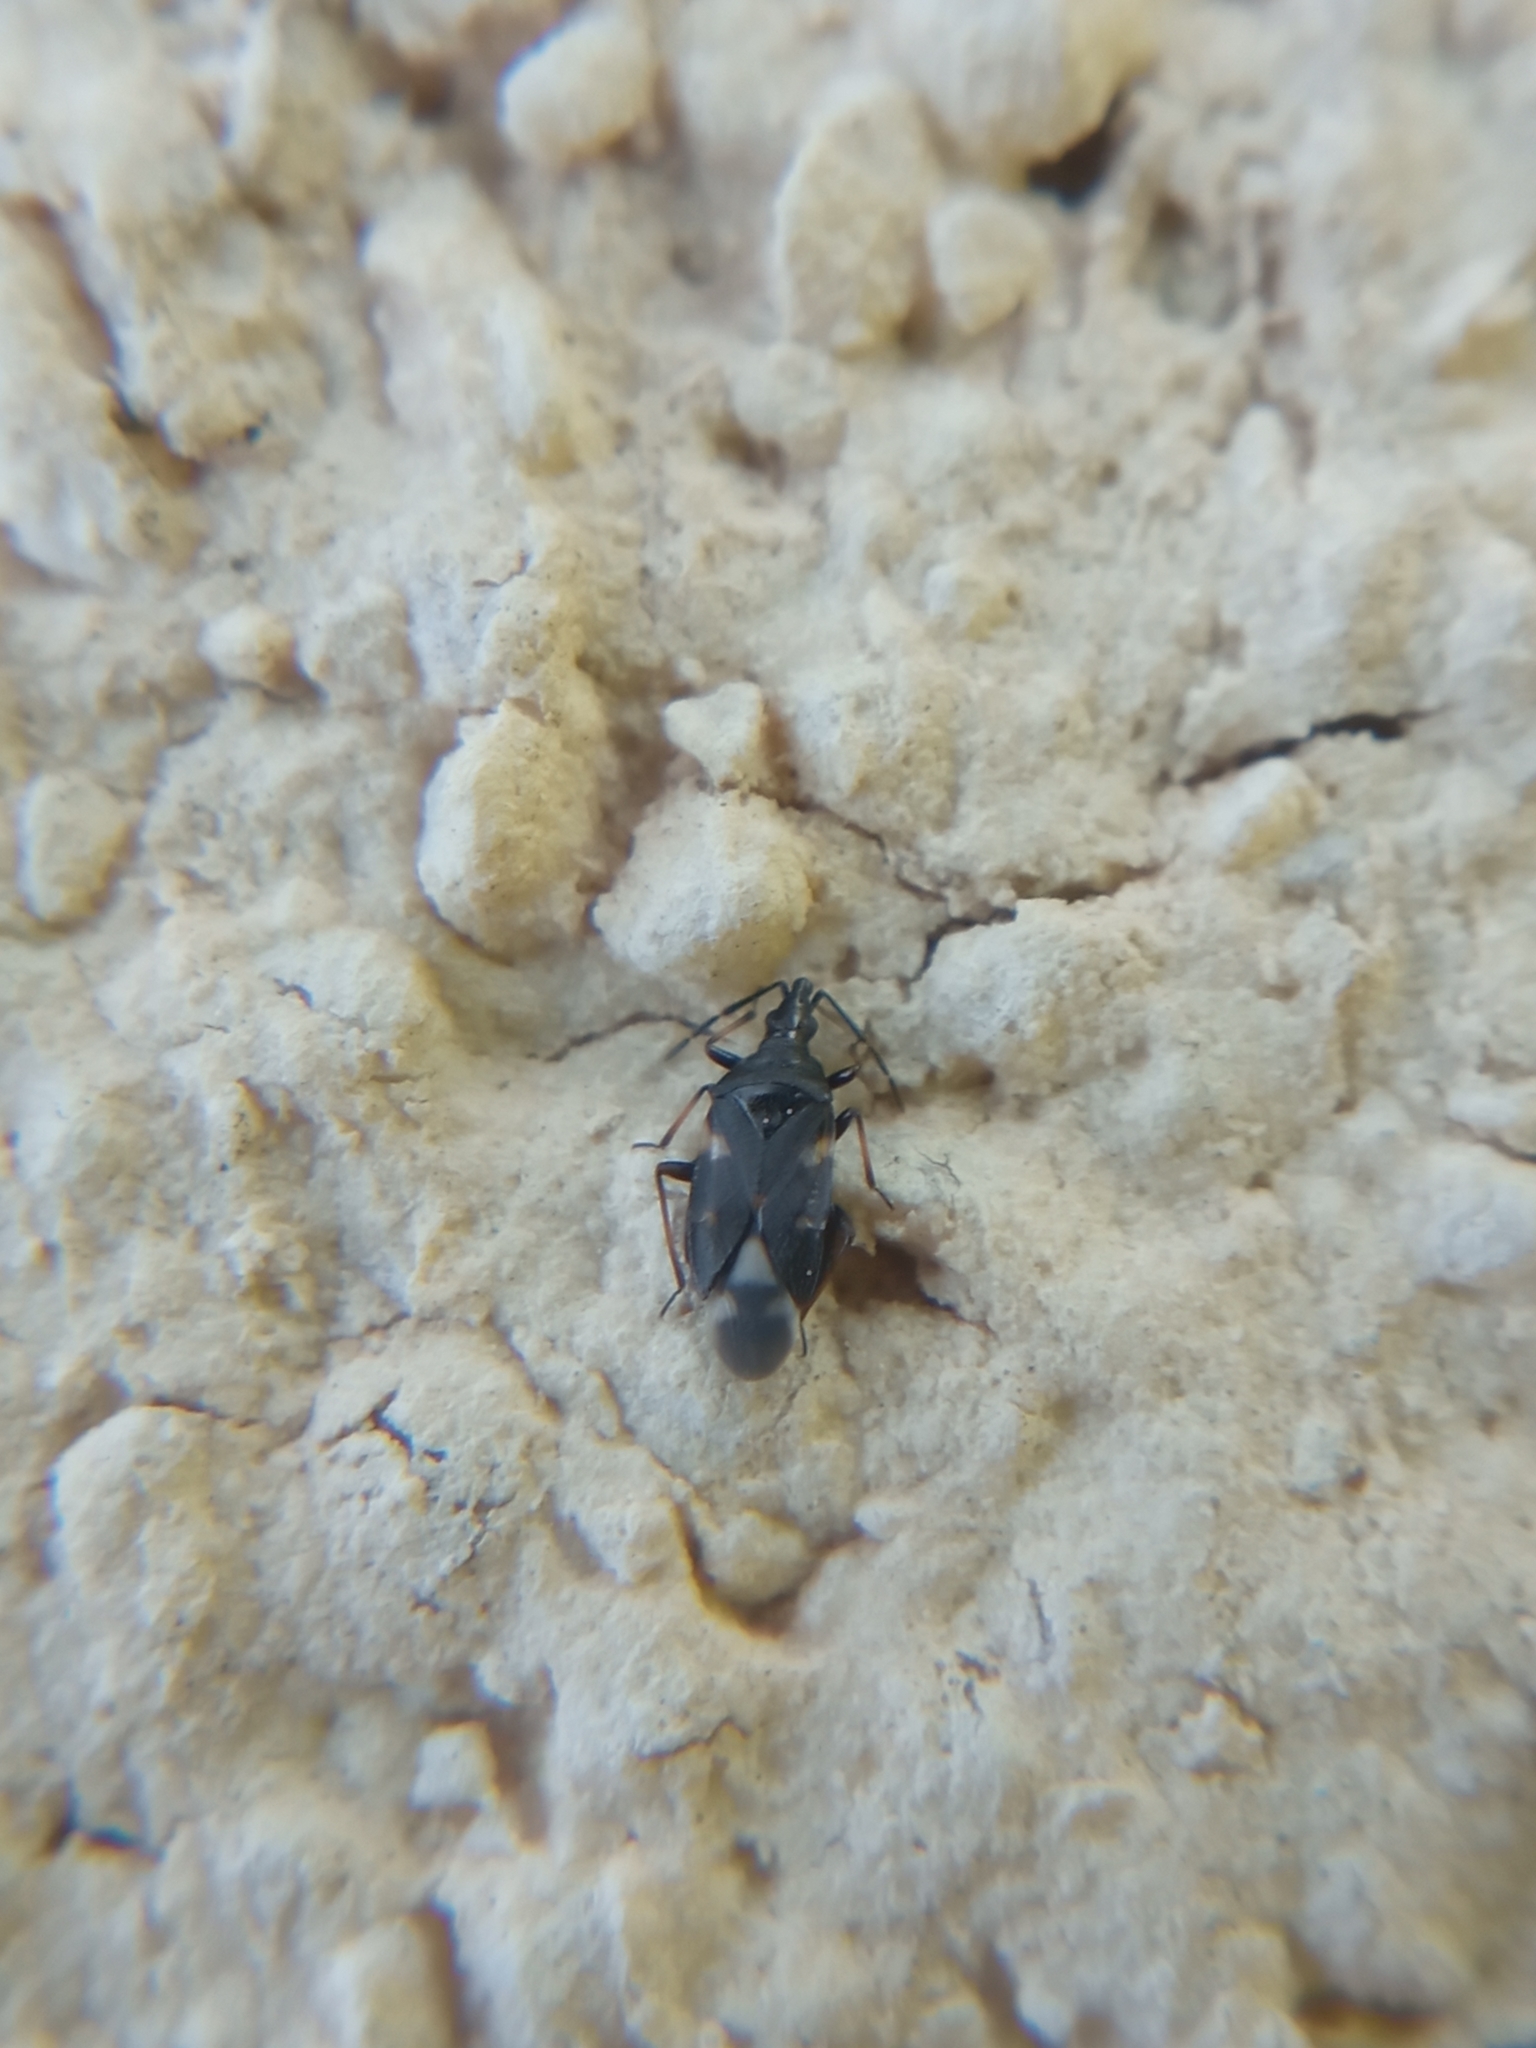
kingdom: Animalia
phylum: Arthropoda
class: Insecta
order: Hemiptera
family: Anthocoridae
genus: Temnostethus
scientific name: Temnostethus pusillus
